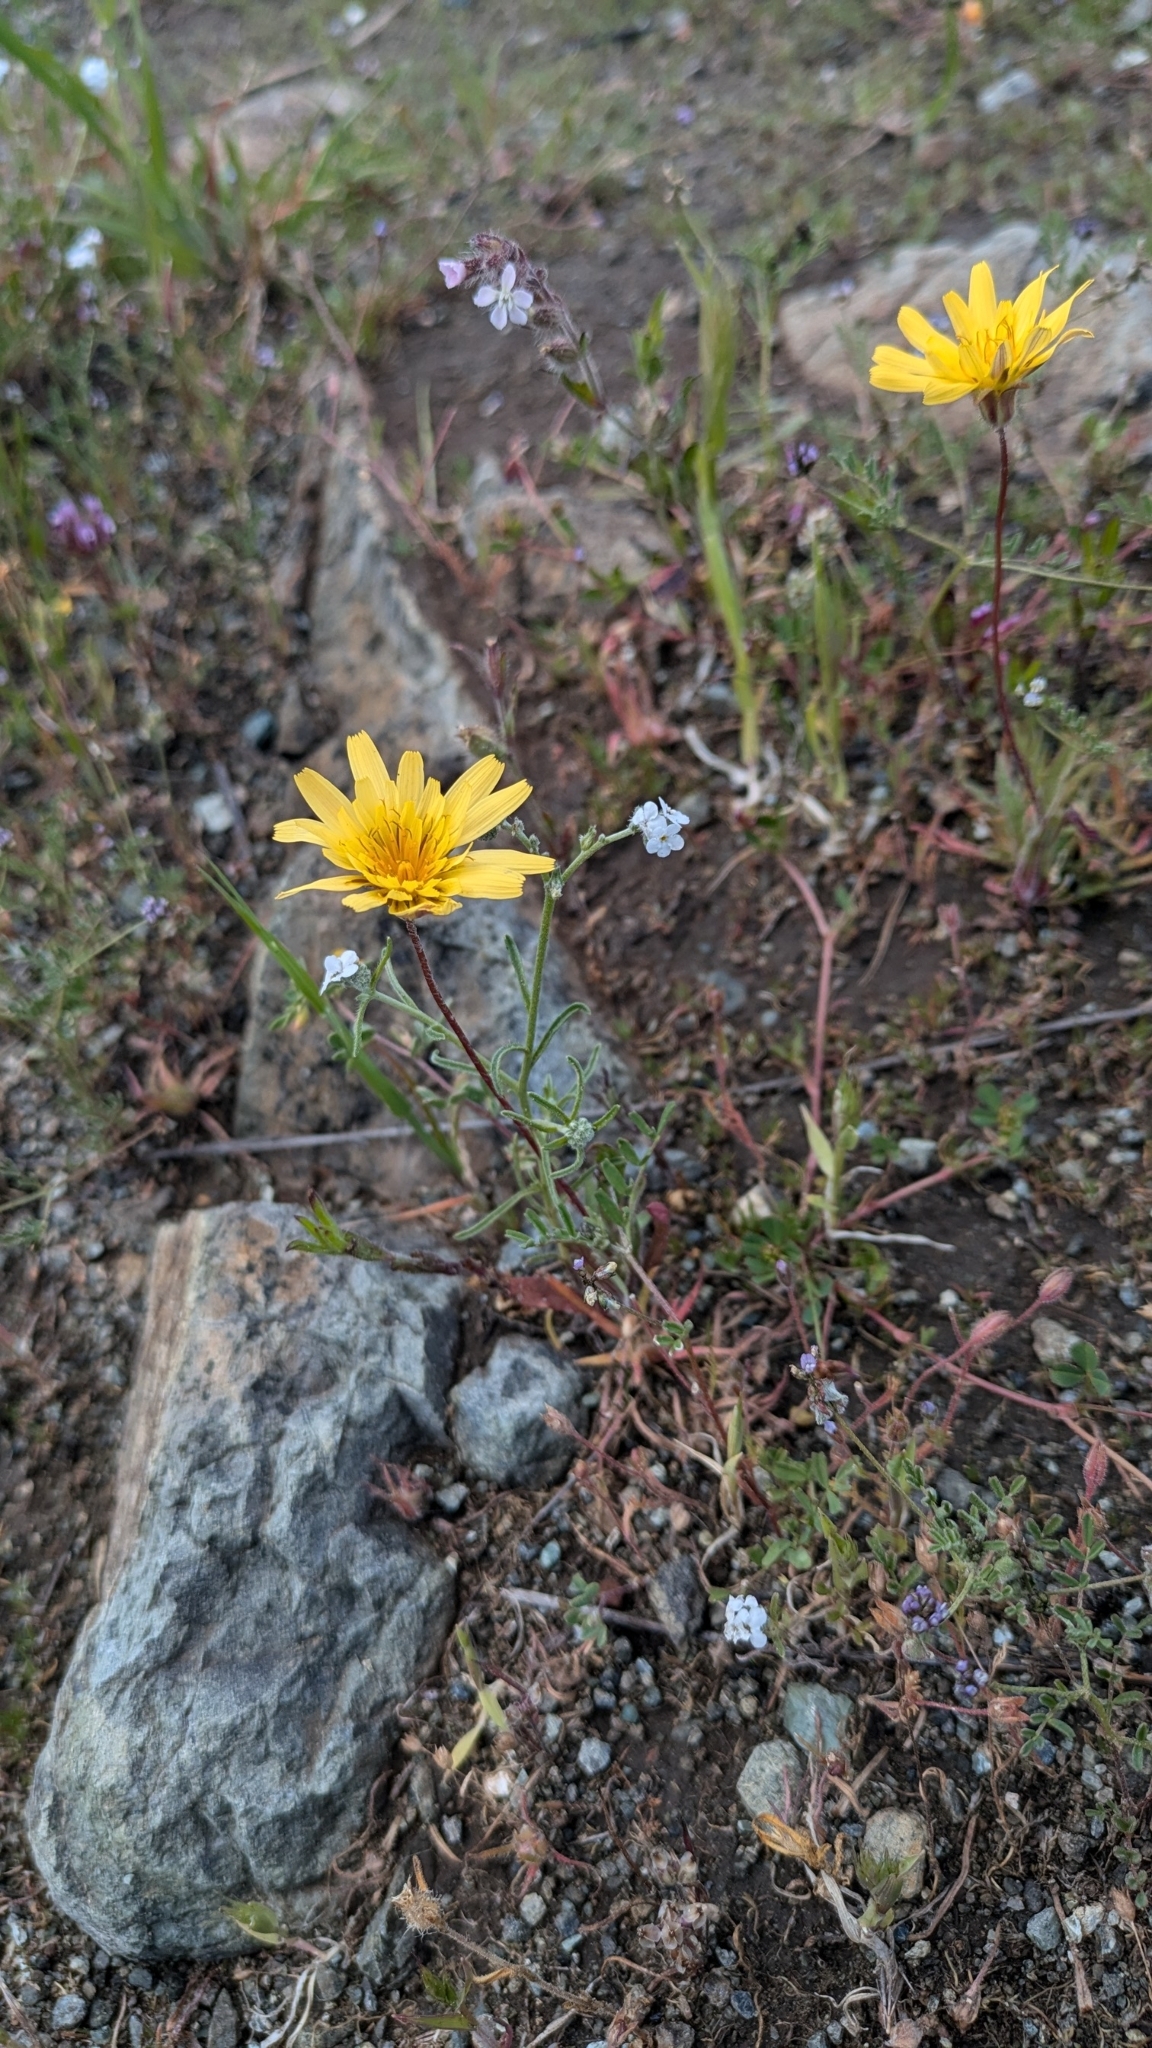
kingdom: Plantae
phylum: Tracheophyta
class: Magnoliopsida
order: Asterales
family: Asteraceae
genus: Agoseris
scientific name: Agoseris heterophylla
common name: Annual agoseris
